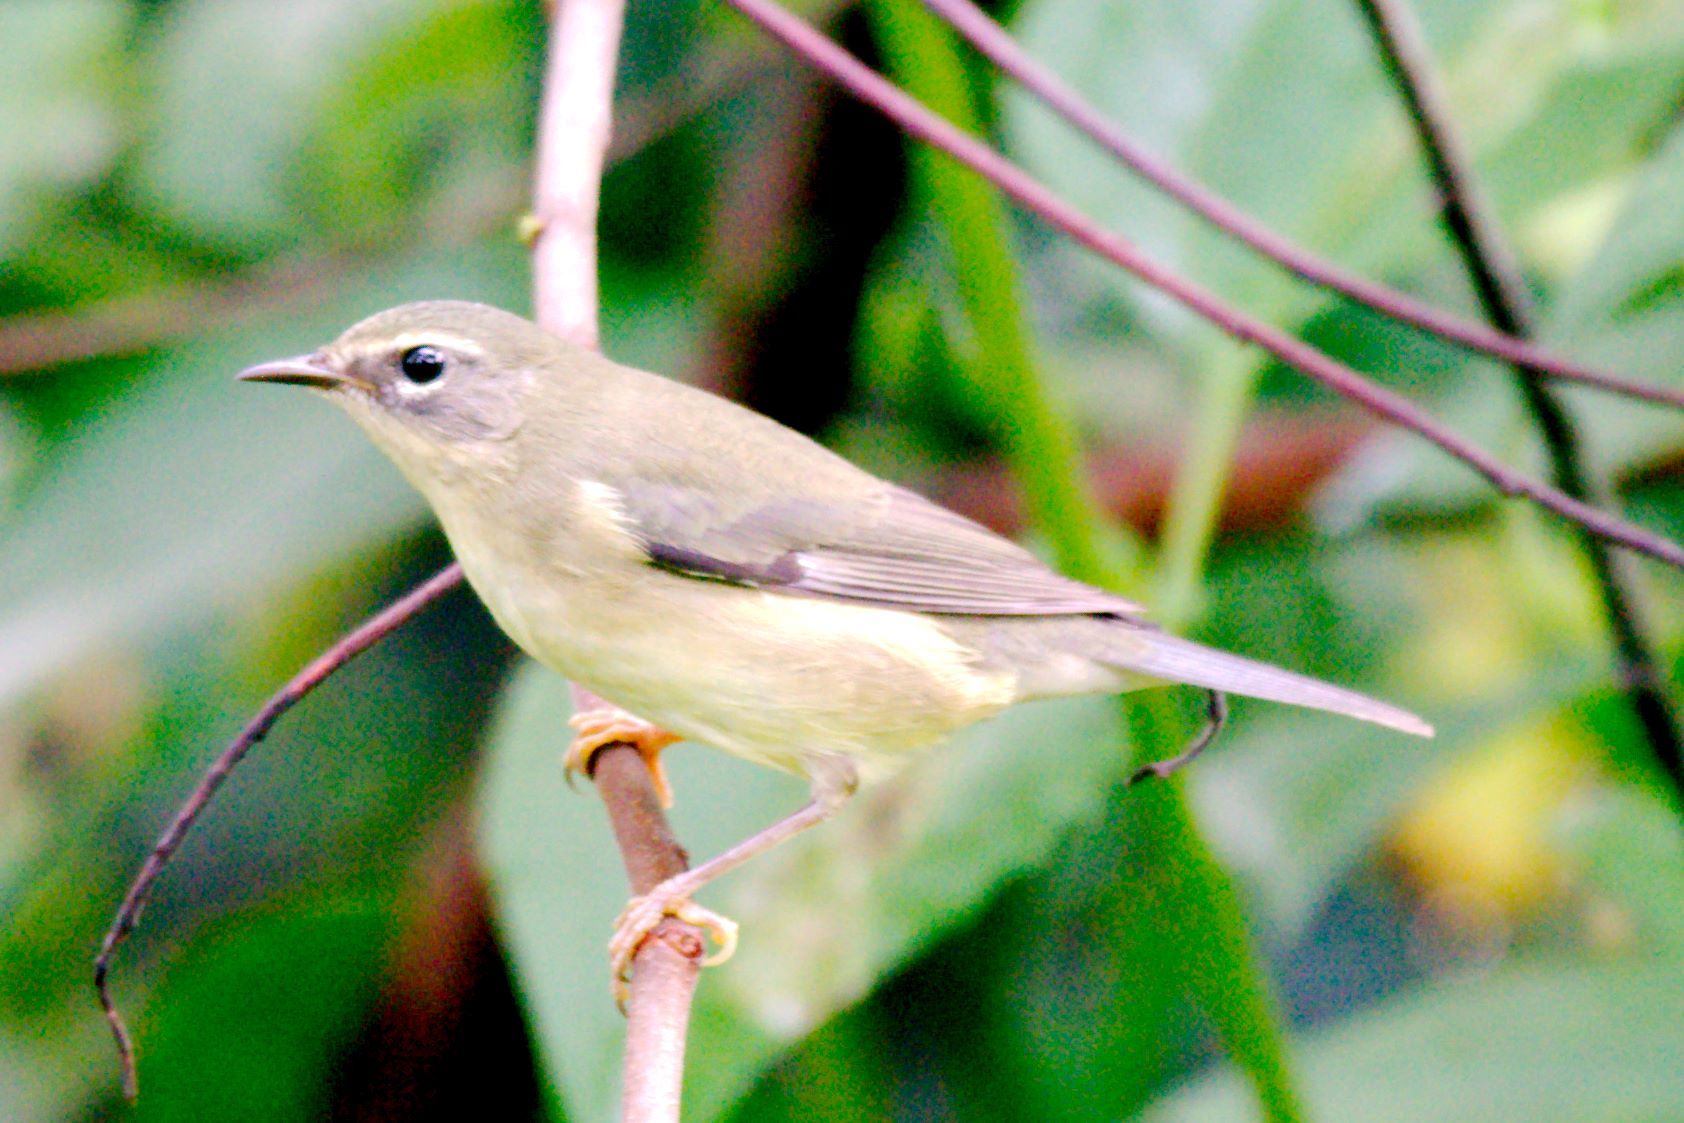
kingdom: Animalia
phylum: Chordata
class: Aves
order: Passeriformes
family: Parulidae
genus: Setophaga
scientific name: Setophaga caerulescens
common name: Black-throated blue warbler
